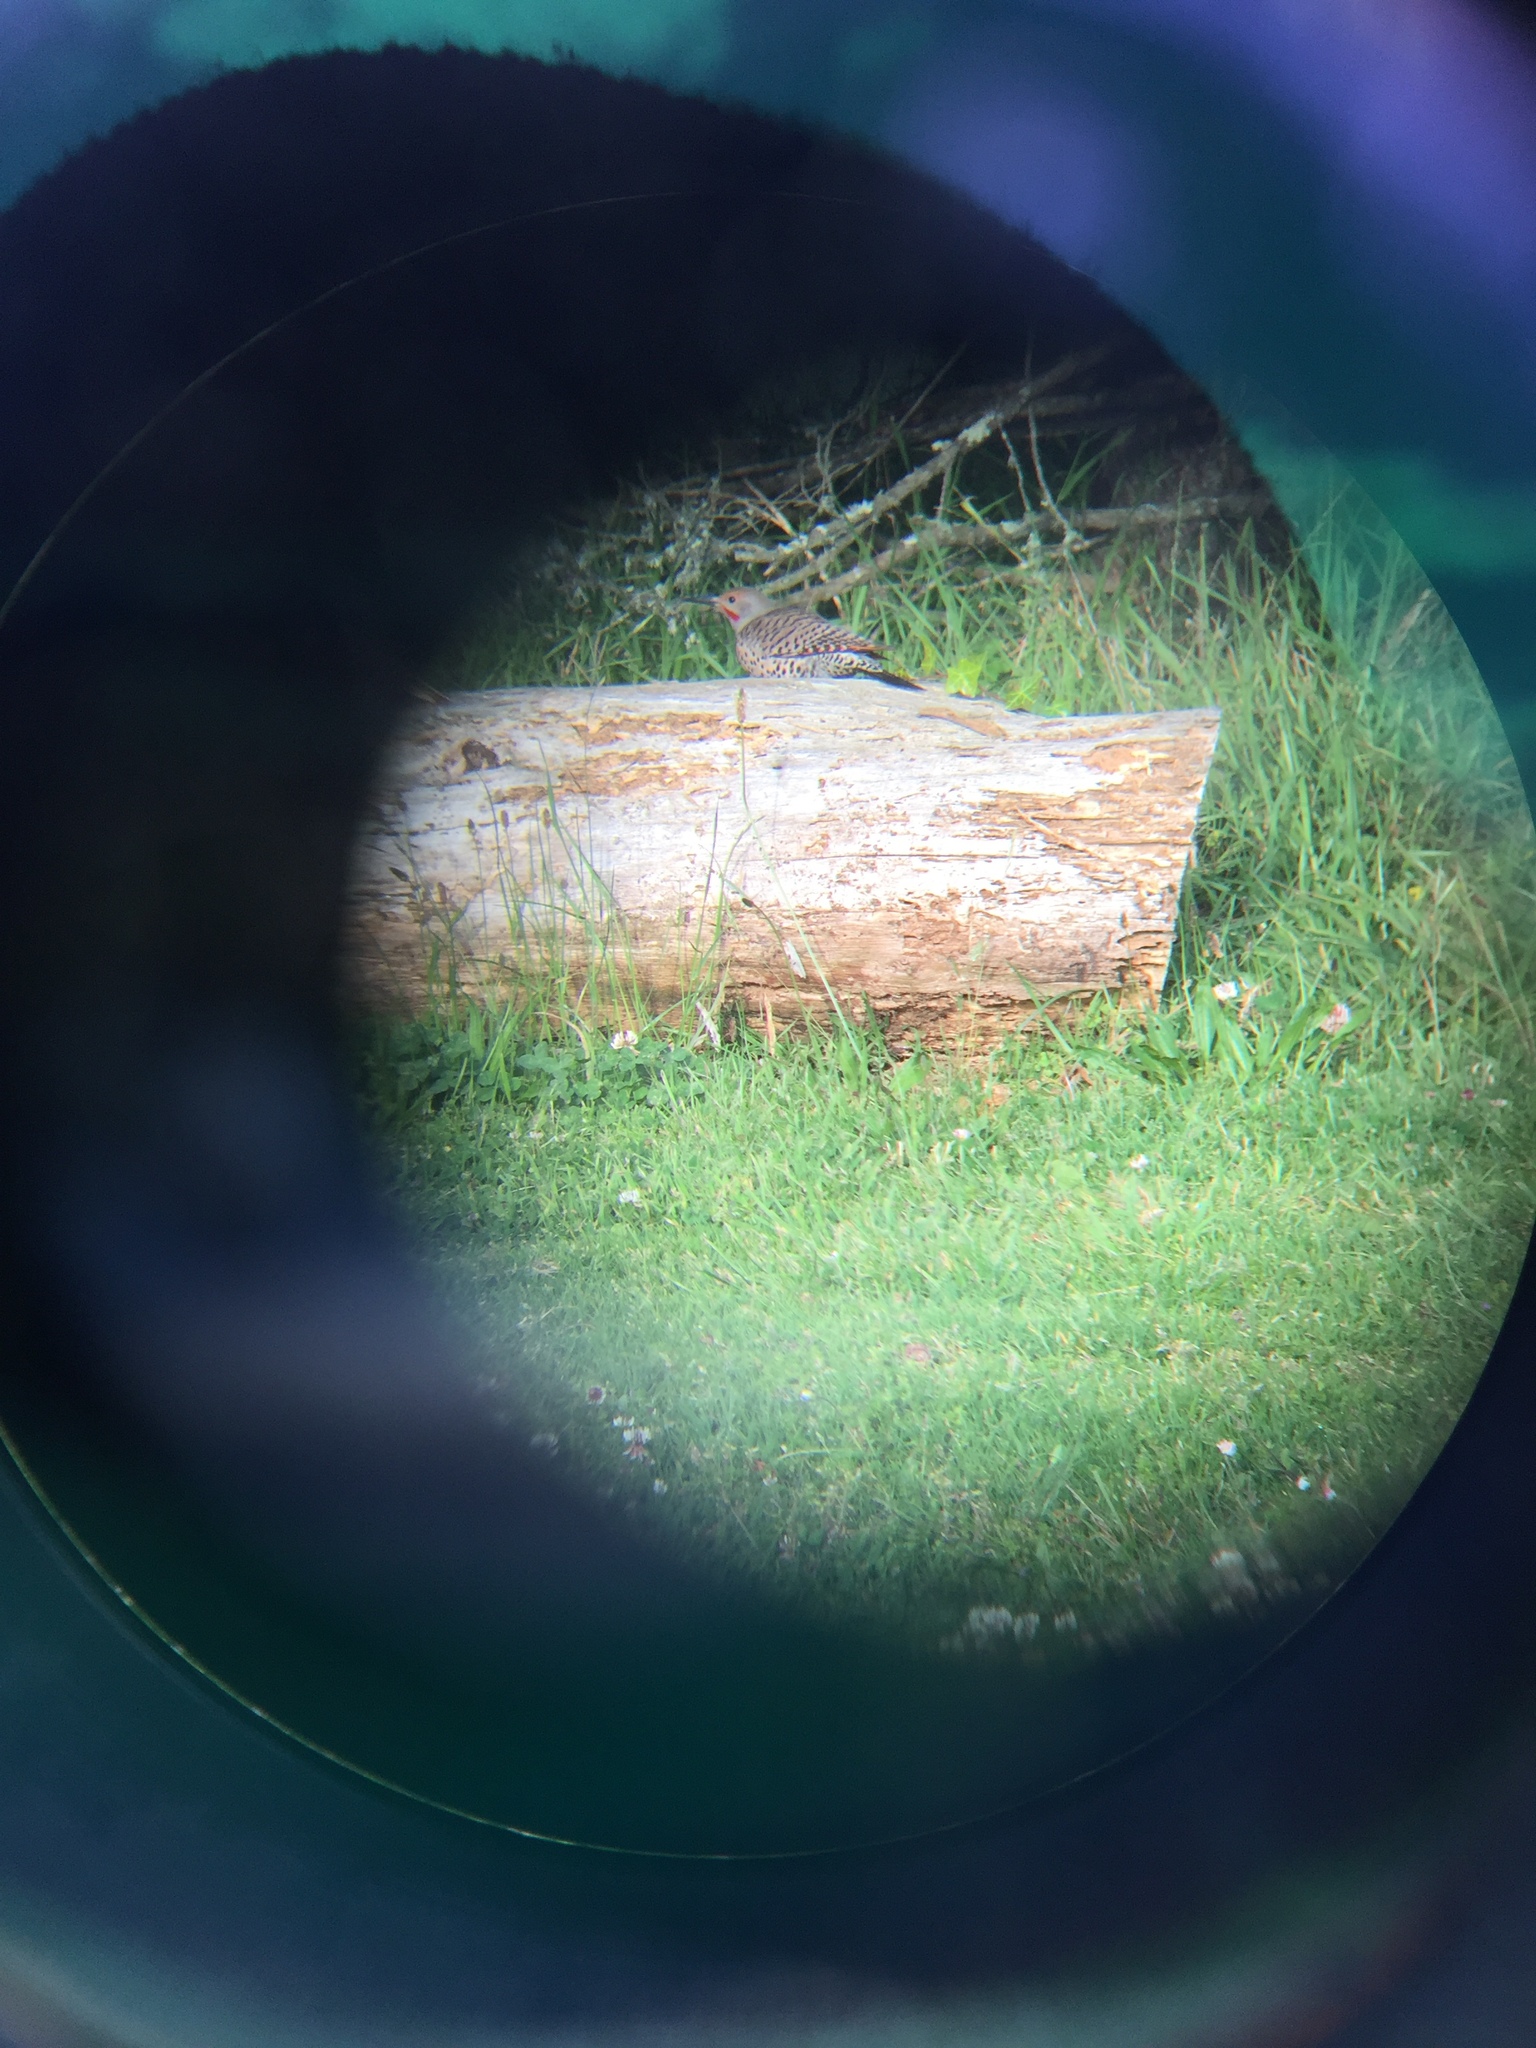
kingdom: Animalia
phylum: Chordata
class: Aves
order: Piciformes
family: Picidae
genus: Colaptes
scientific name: Colaptes auratus
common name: Northern flicker
